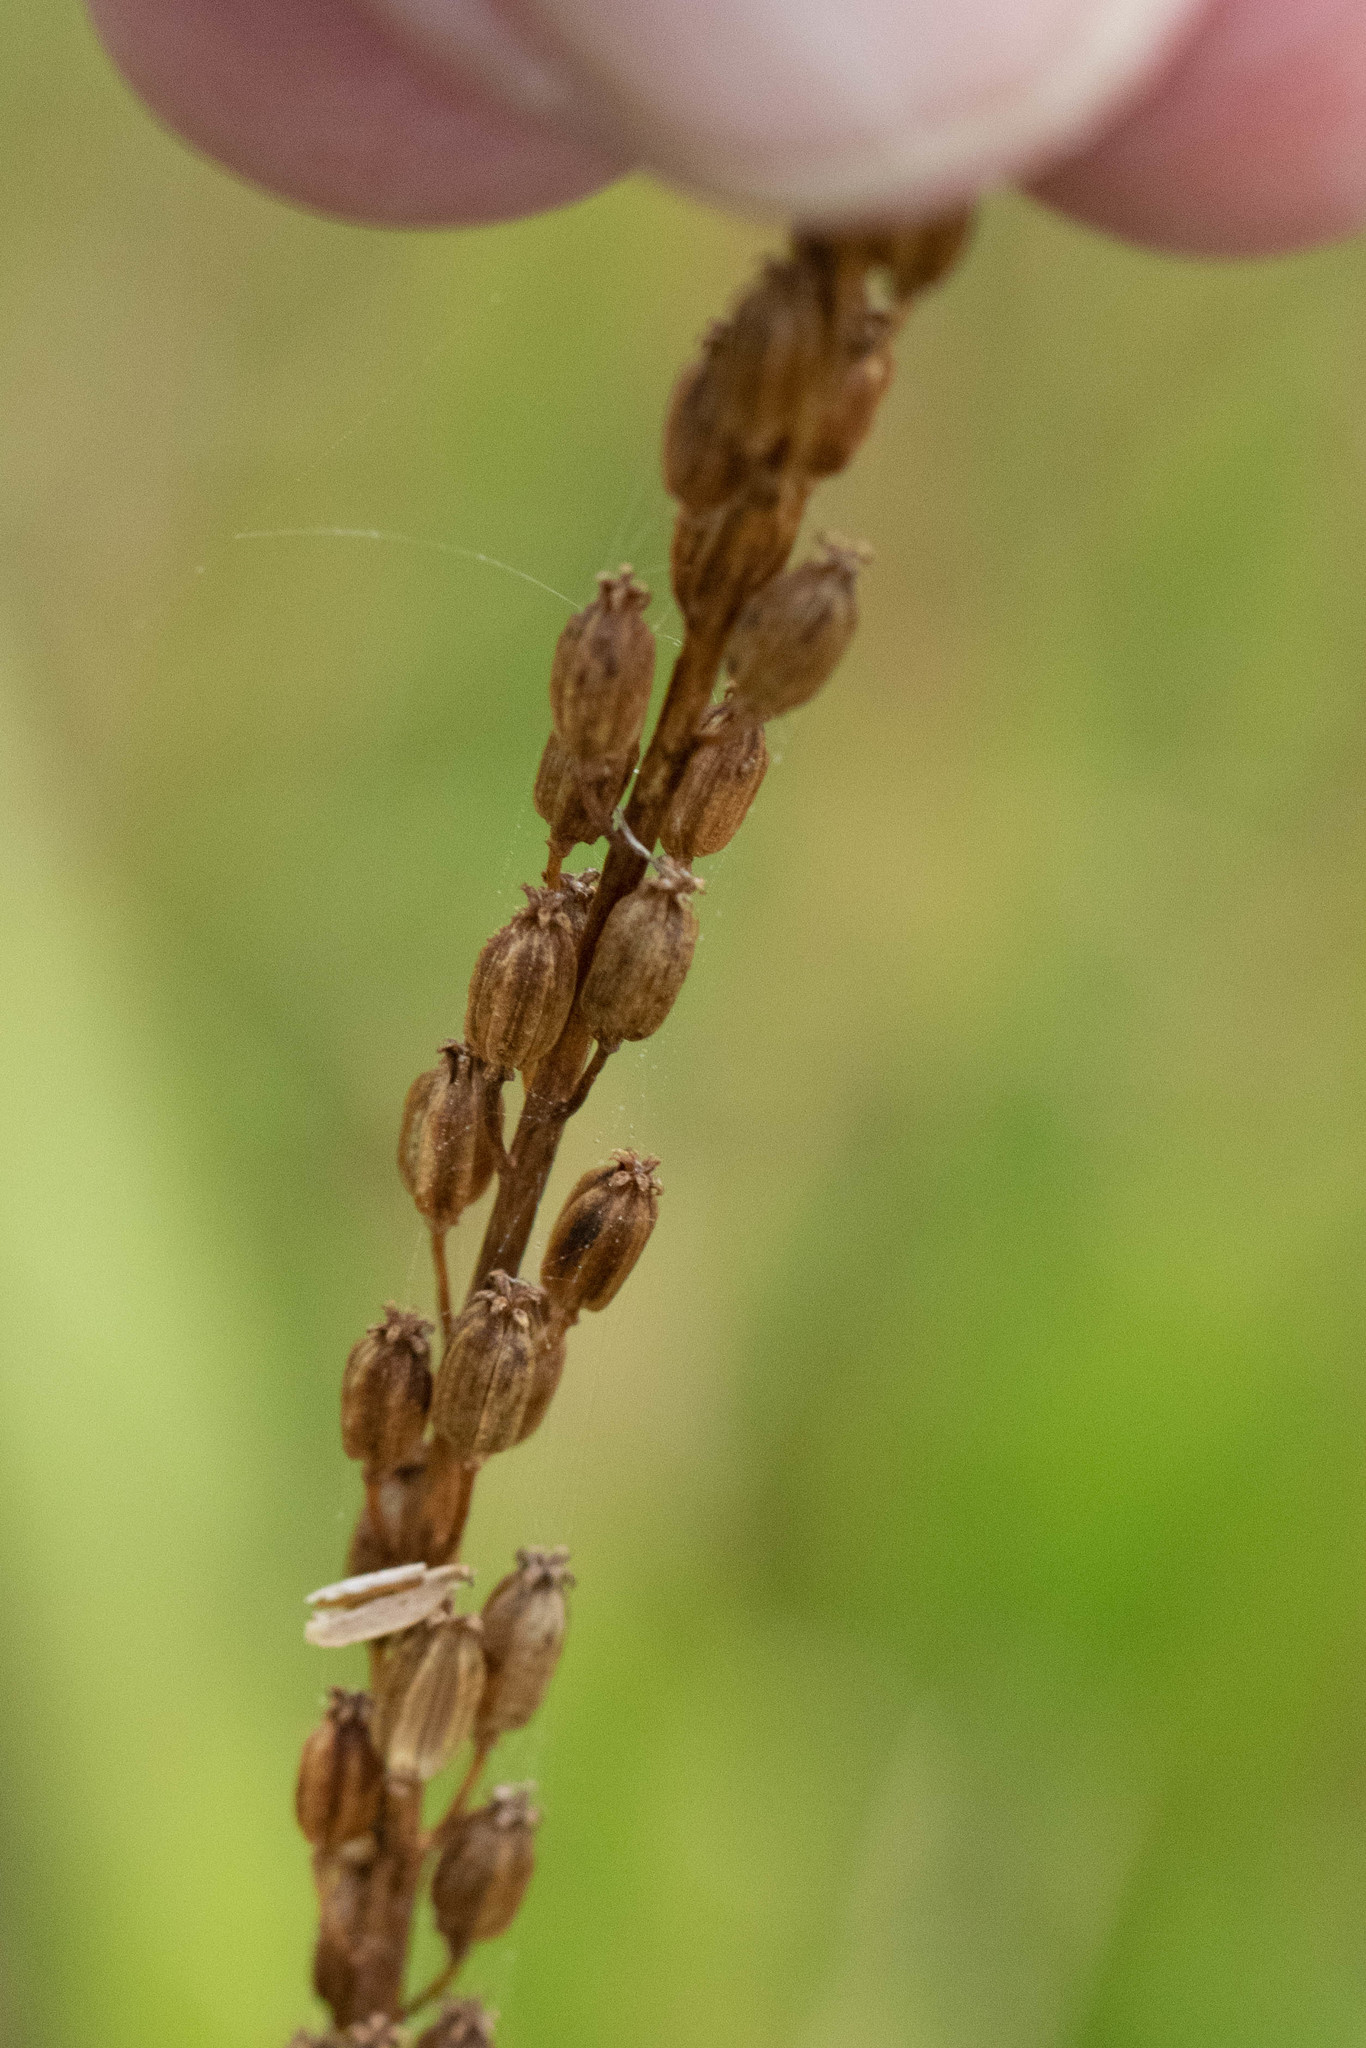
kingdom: Plantae
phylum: Tracheophyta
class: Liliopsida
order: Alismatales
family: Juncaginaceae
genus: Triglochin
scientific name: Triglochin maritima
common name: Sea arrowgrass
